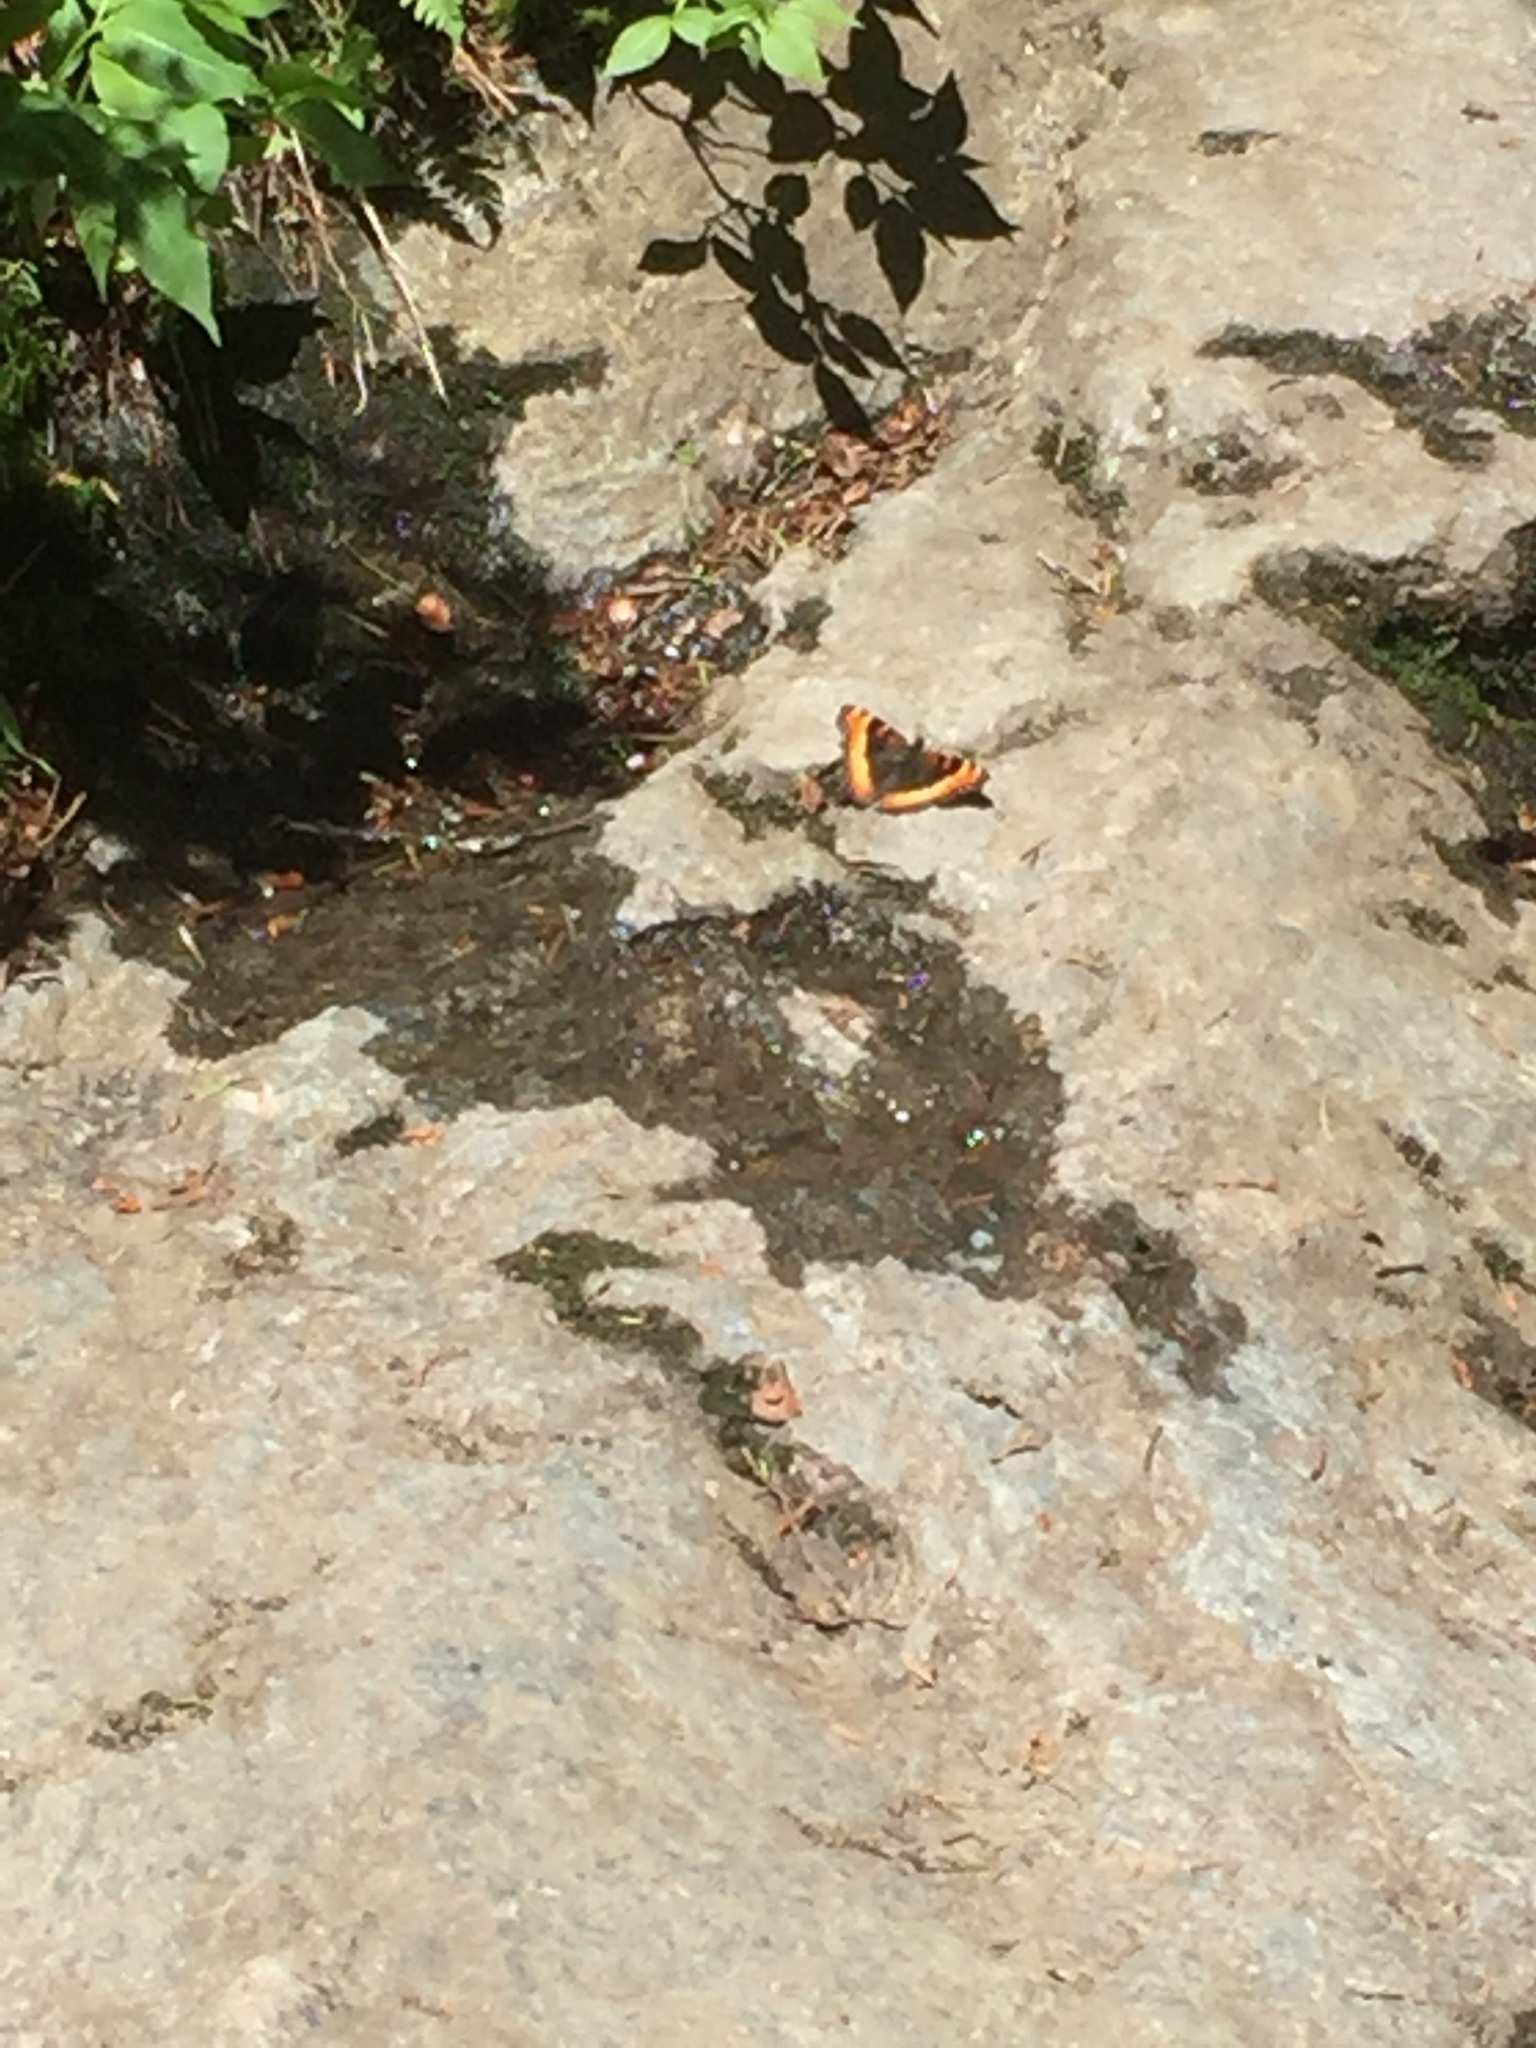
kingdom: Animalia
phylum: Arthropoda
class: Insecta
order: Lepidoptera
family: Nymphalidae
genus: Aglais
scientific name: Aglais milberti
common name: Milbert's tortoiseshell
